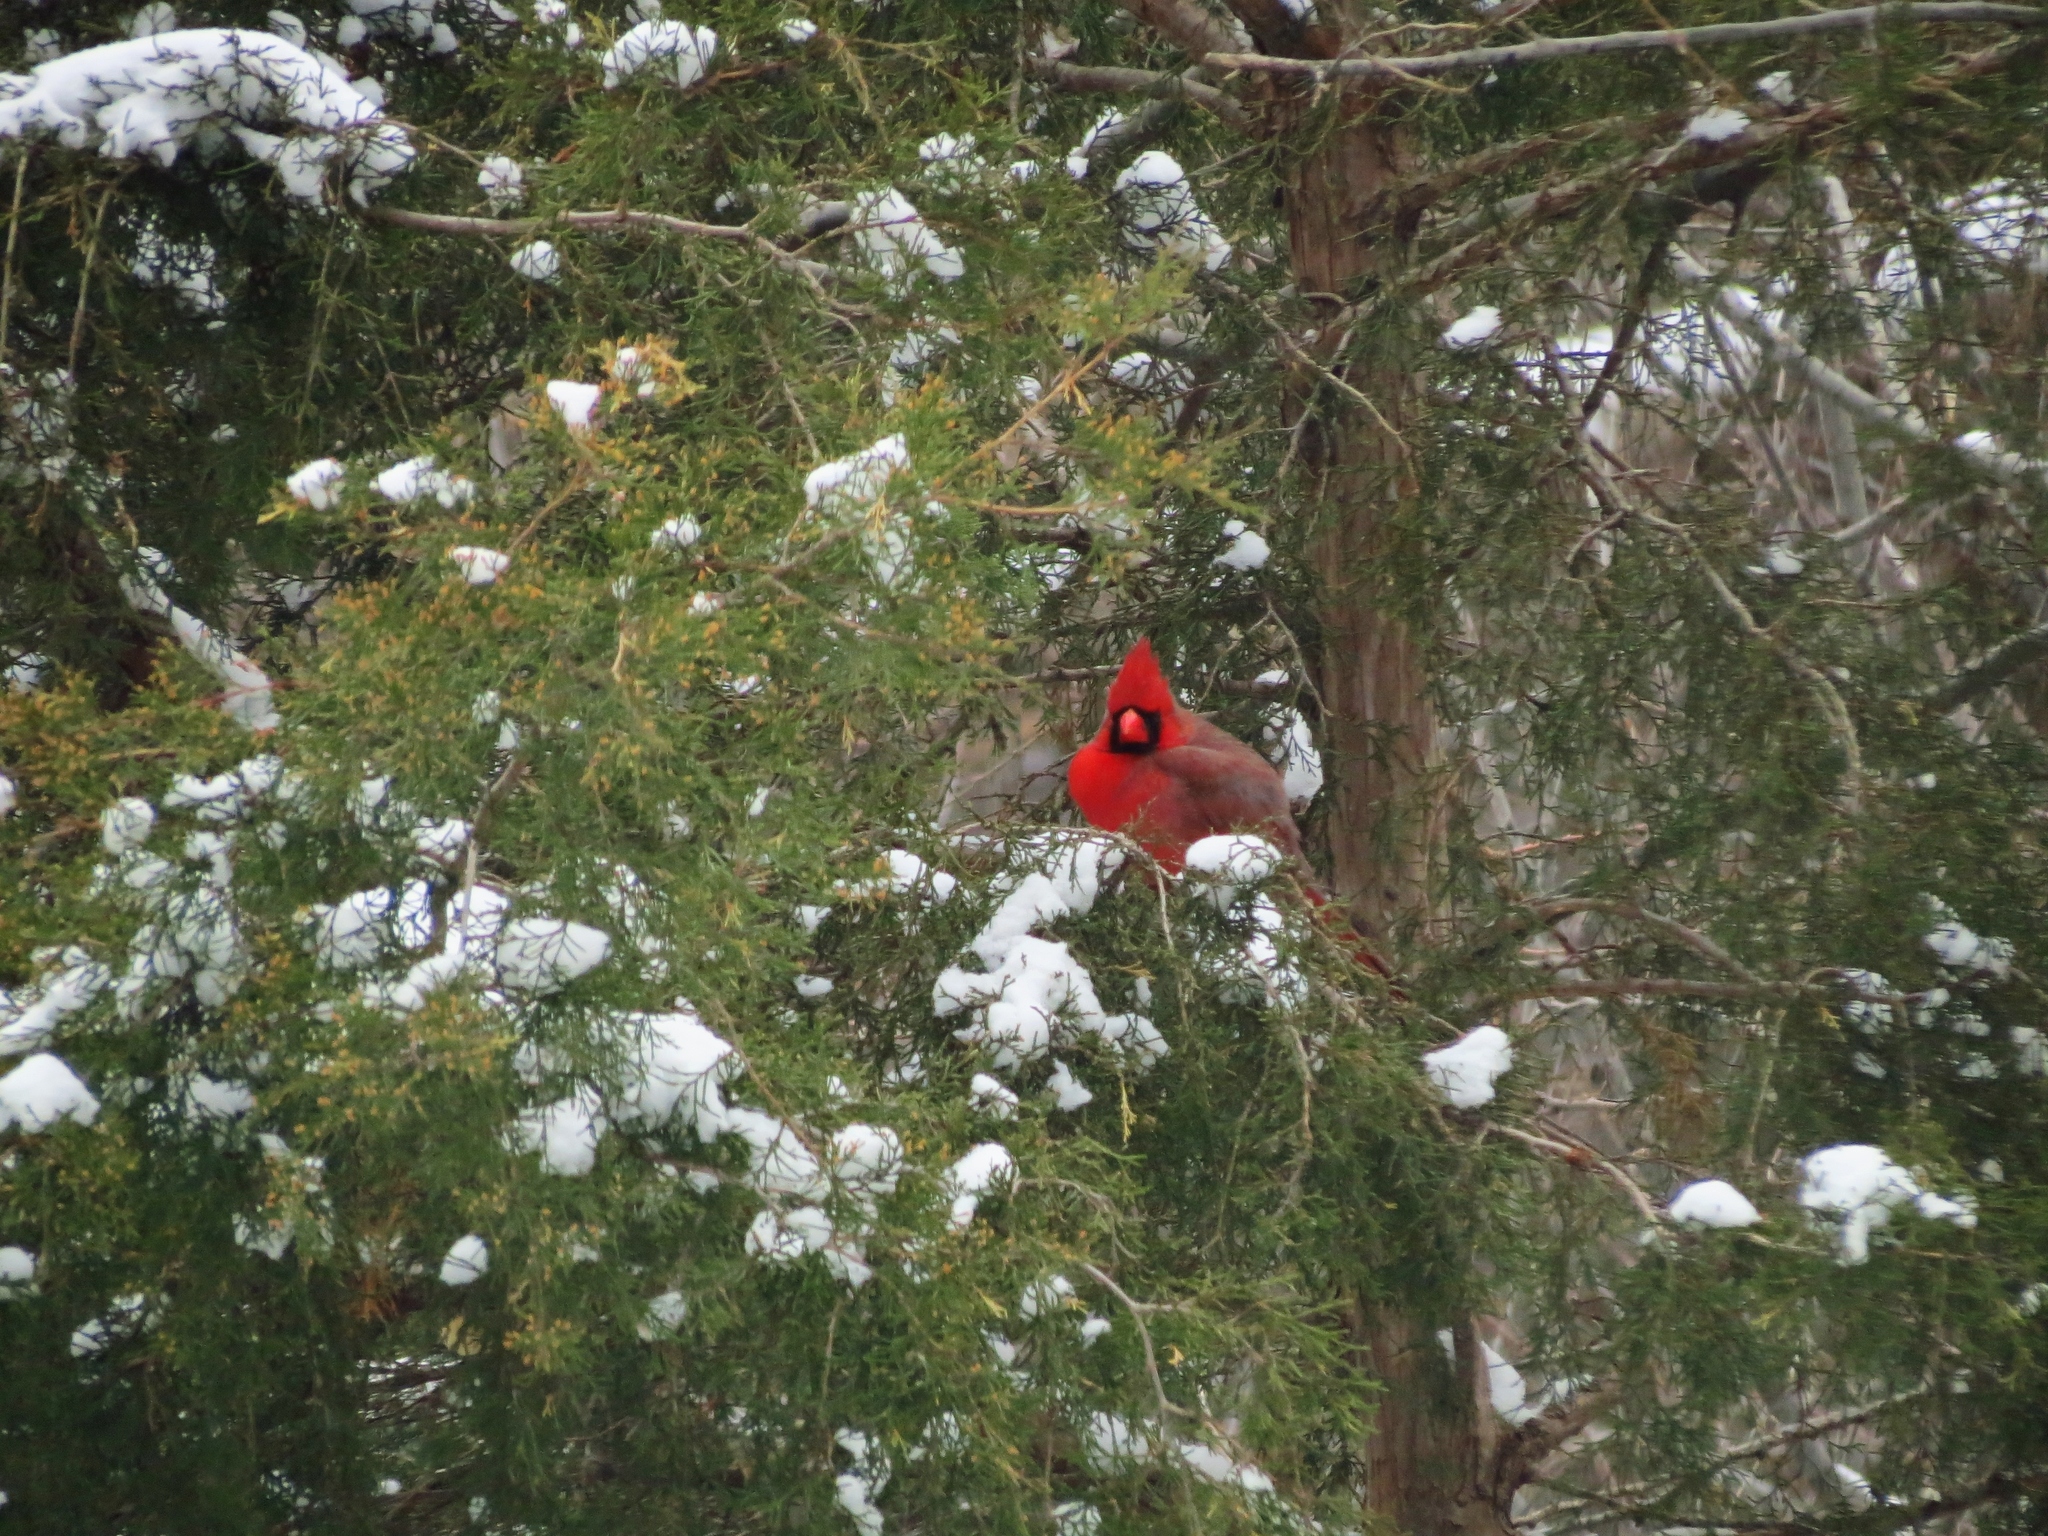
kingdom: Animalia
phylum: Chordata
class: Aves
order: Passeriformes
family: Cardinalidae
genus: Cardinalis
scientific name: Cardinalis cardinalis
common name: Northern cardinal
